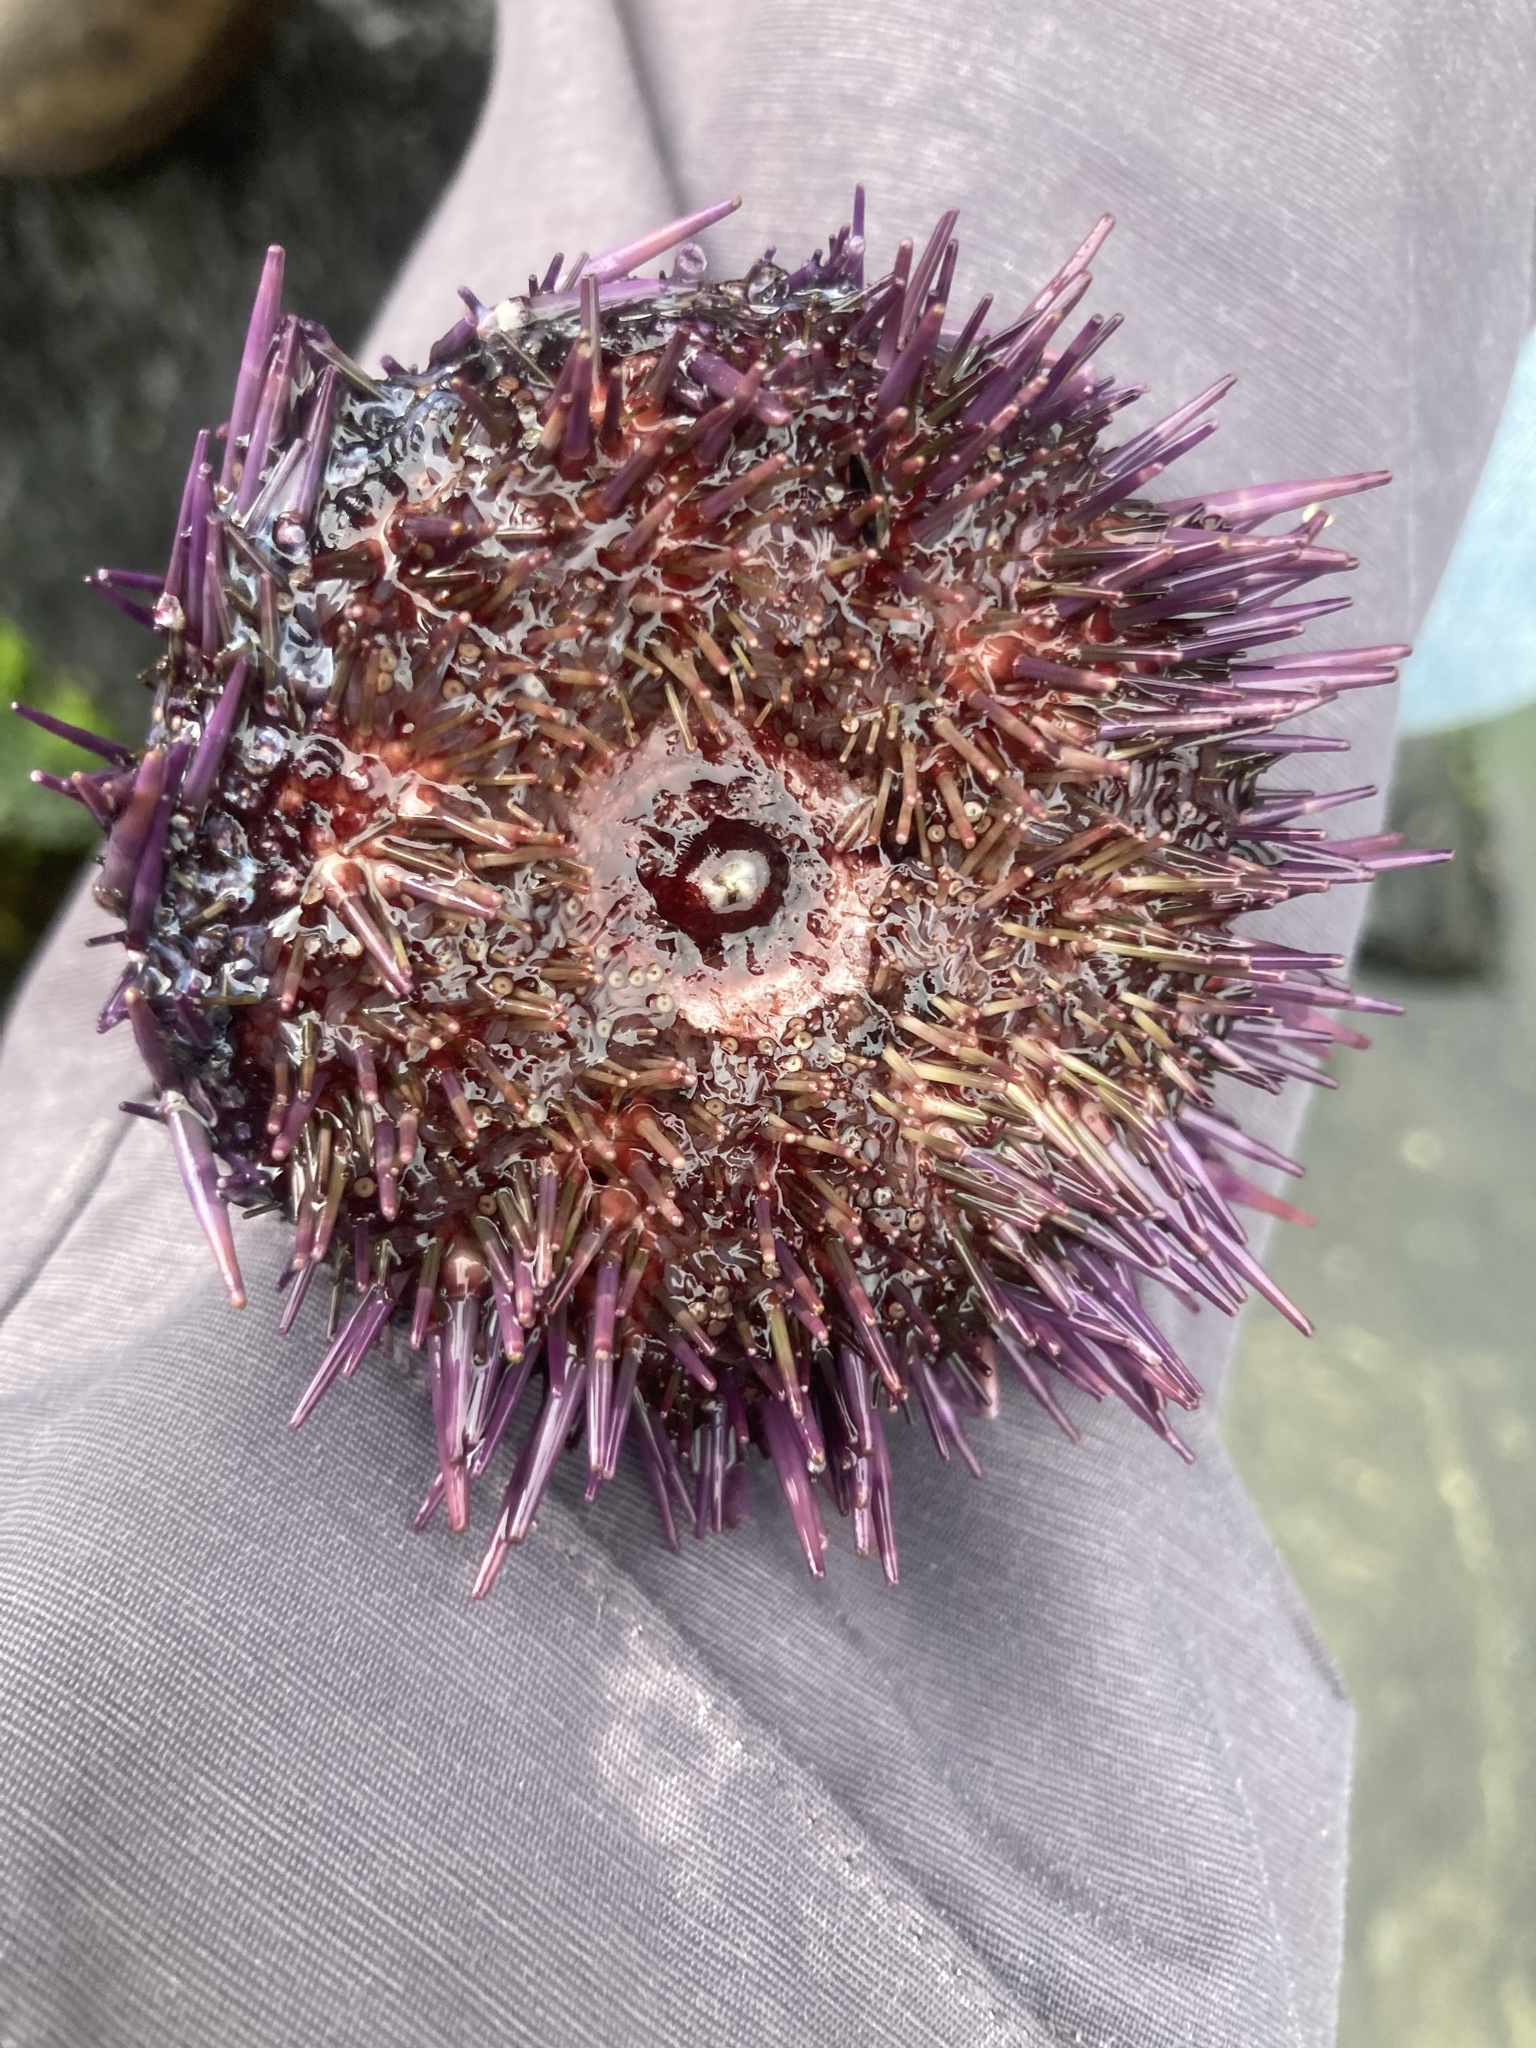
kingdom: Animalia
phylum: Echinodermata
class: Echinoidea
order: Camarodonta
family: Strongylocentrotidae
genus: Strongylocentrotus
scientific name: Strongylocentrotus purpuratus
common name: Purple sea urchin
